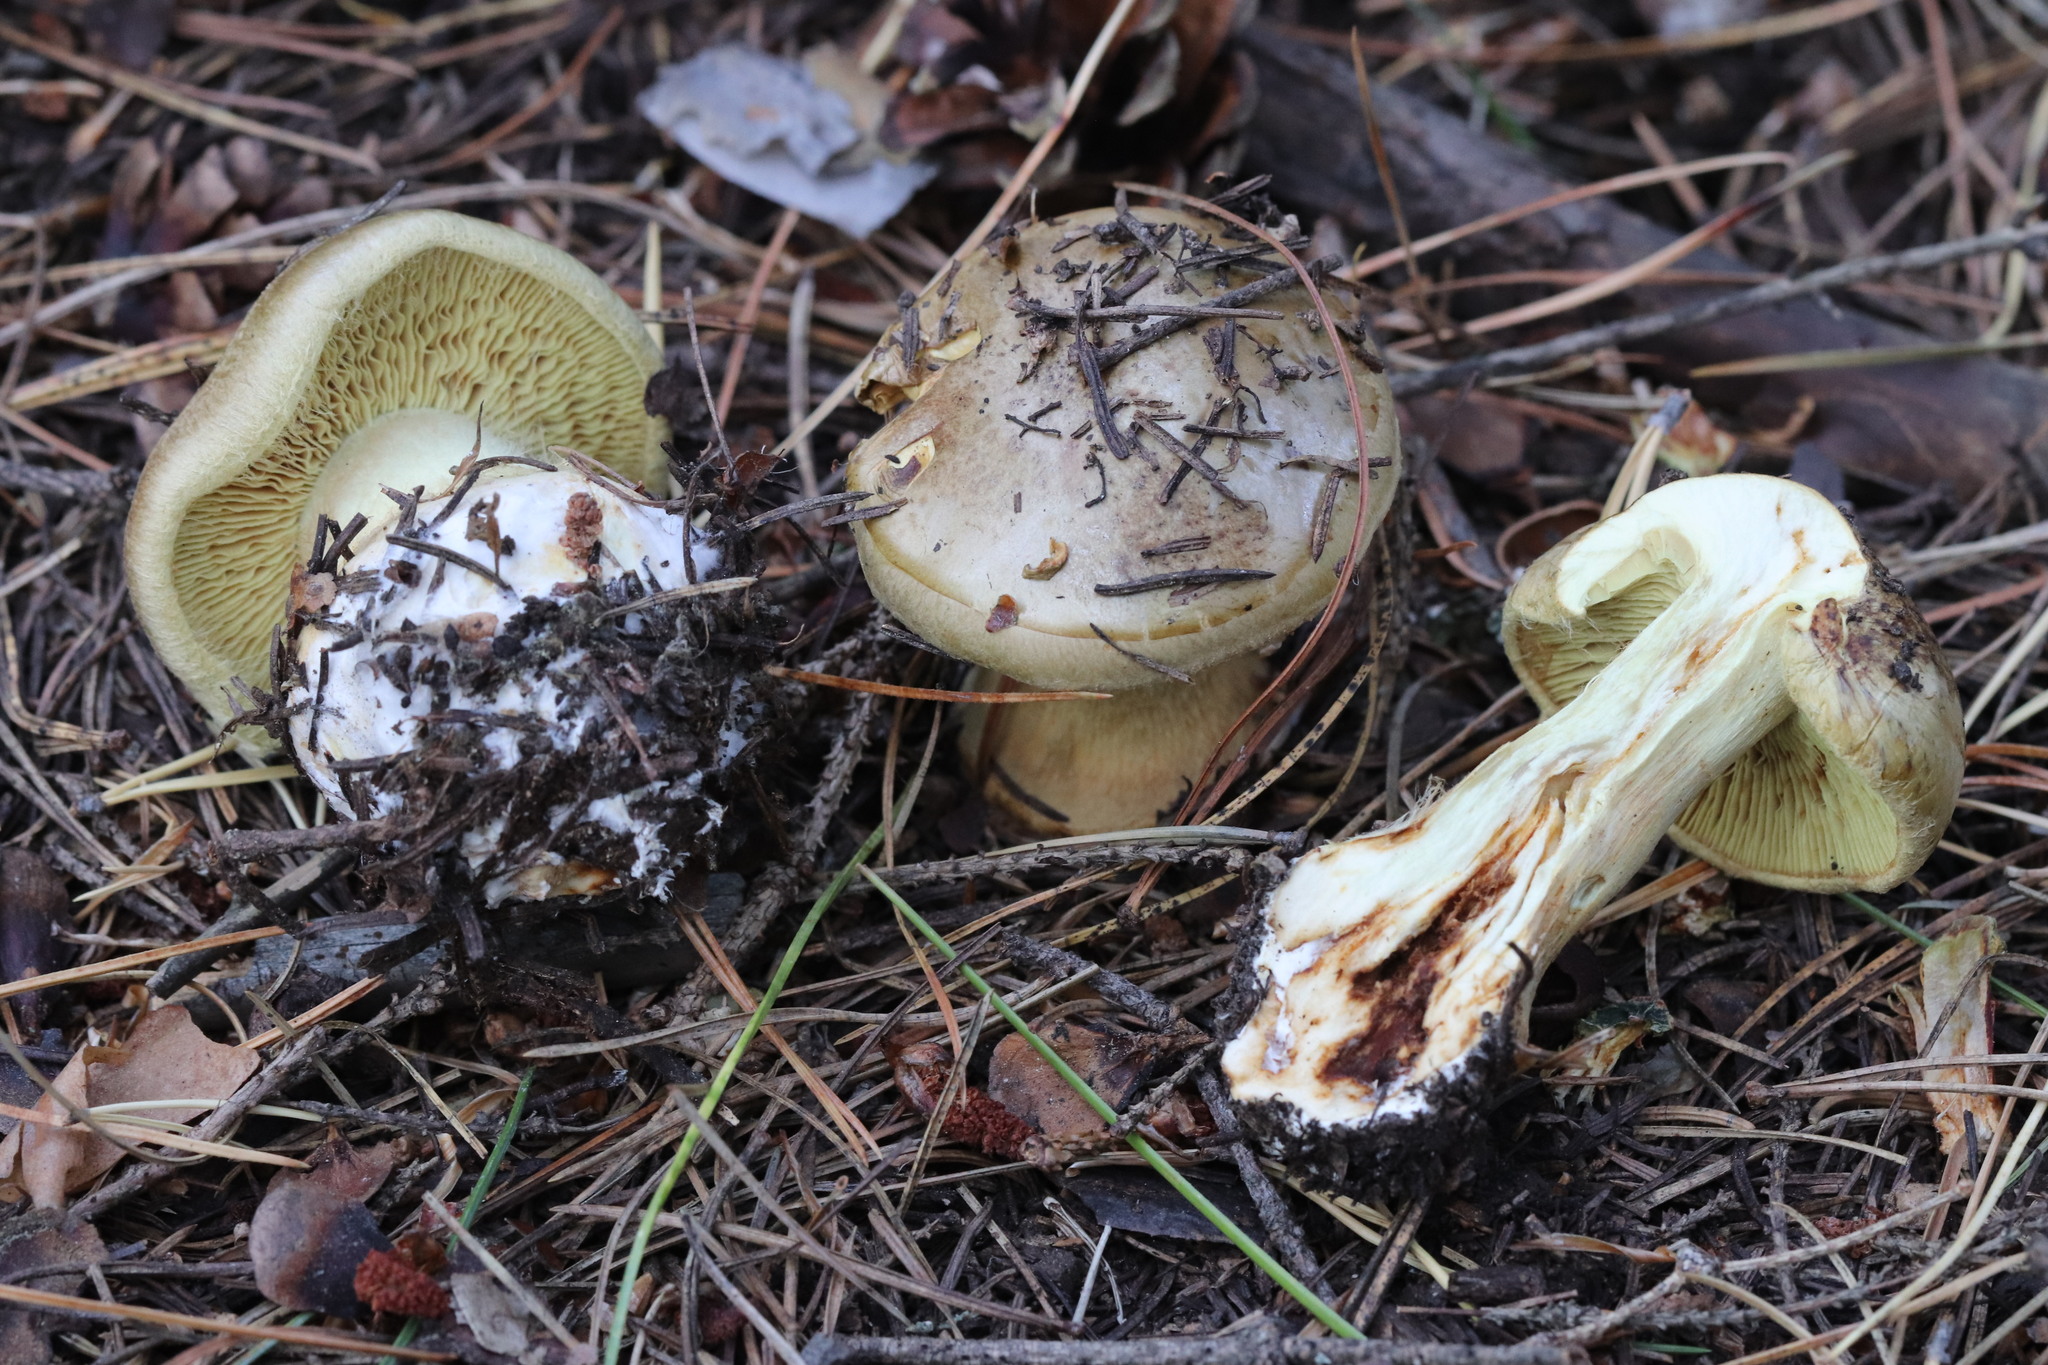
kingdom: Fungi
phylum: Basidiomycota
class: Agaricomycetes
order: Agaricales
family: Tricholomataceae
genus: Tricholoma
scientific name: Tricholoma equestre
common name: Yellow knight
